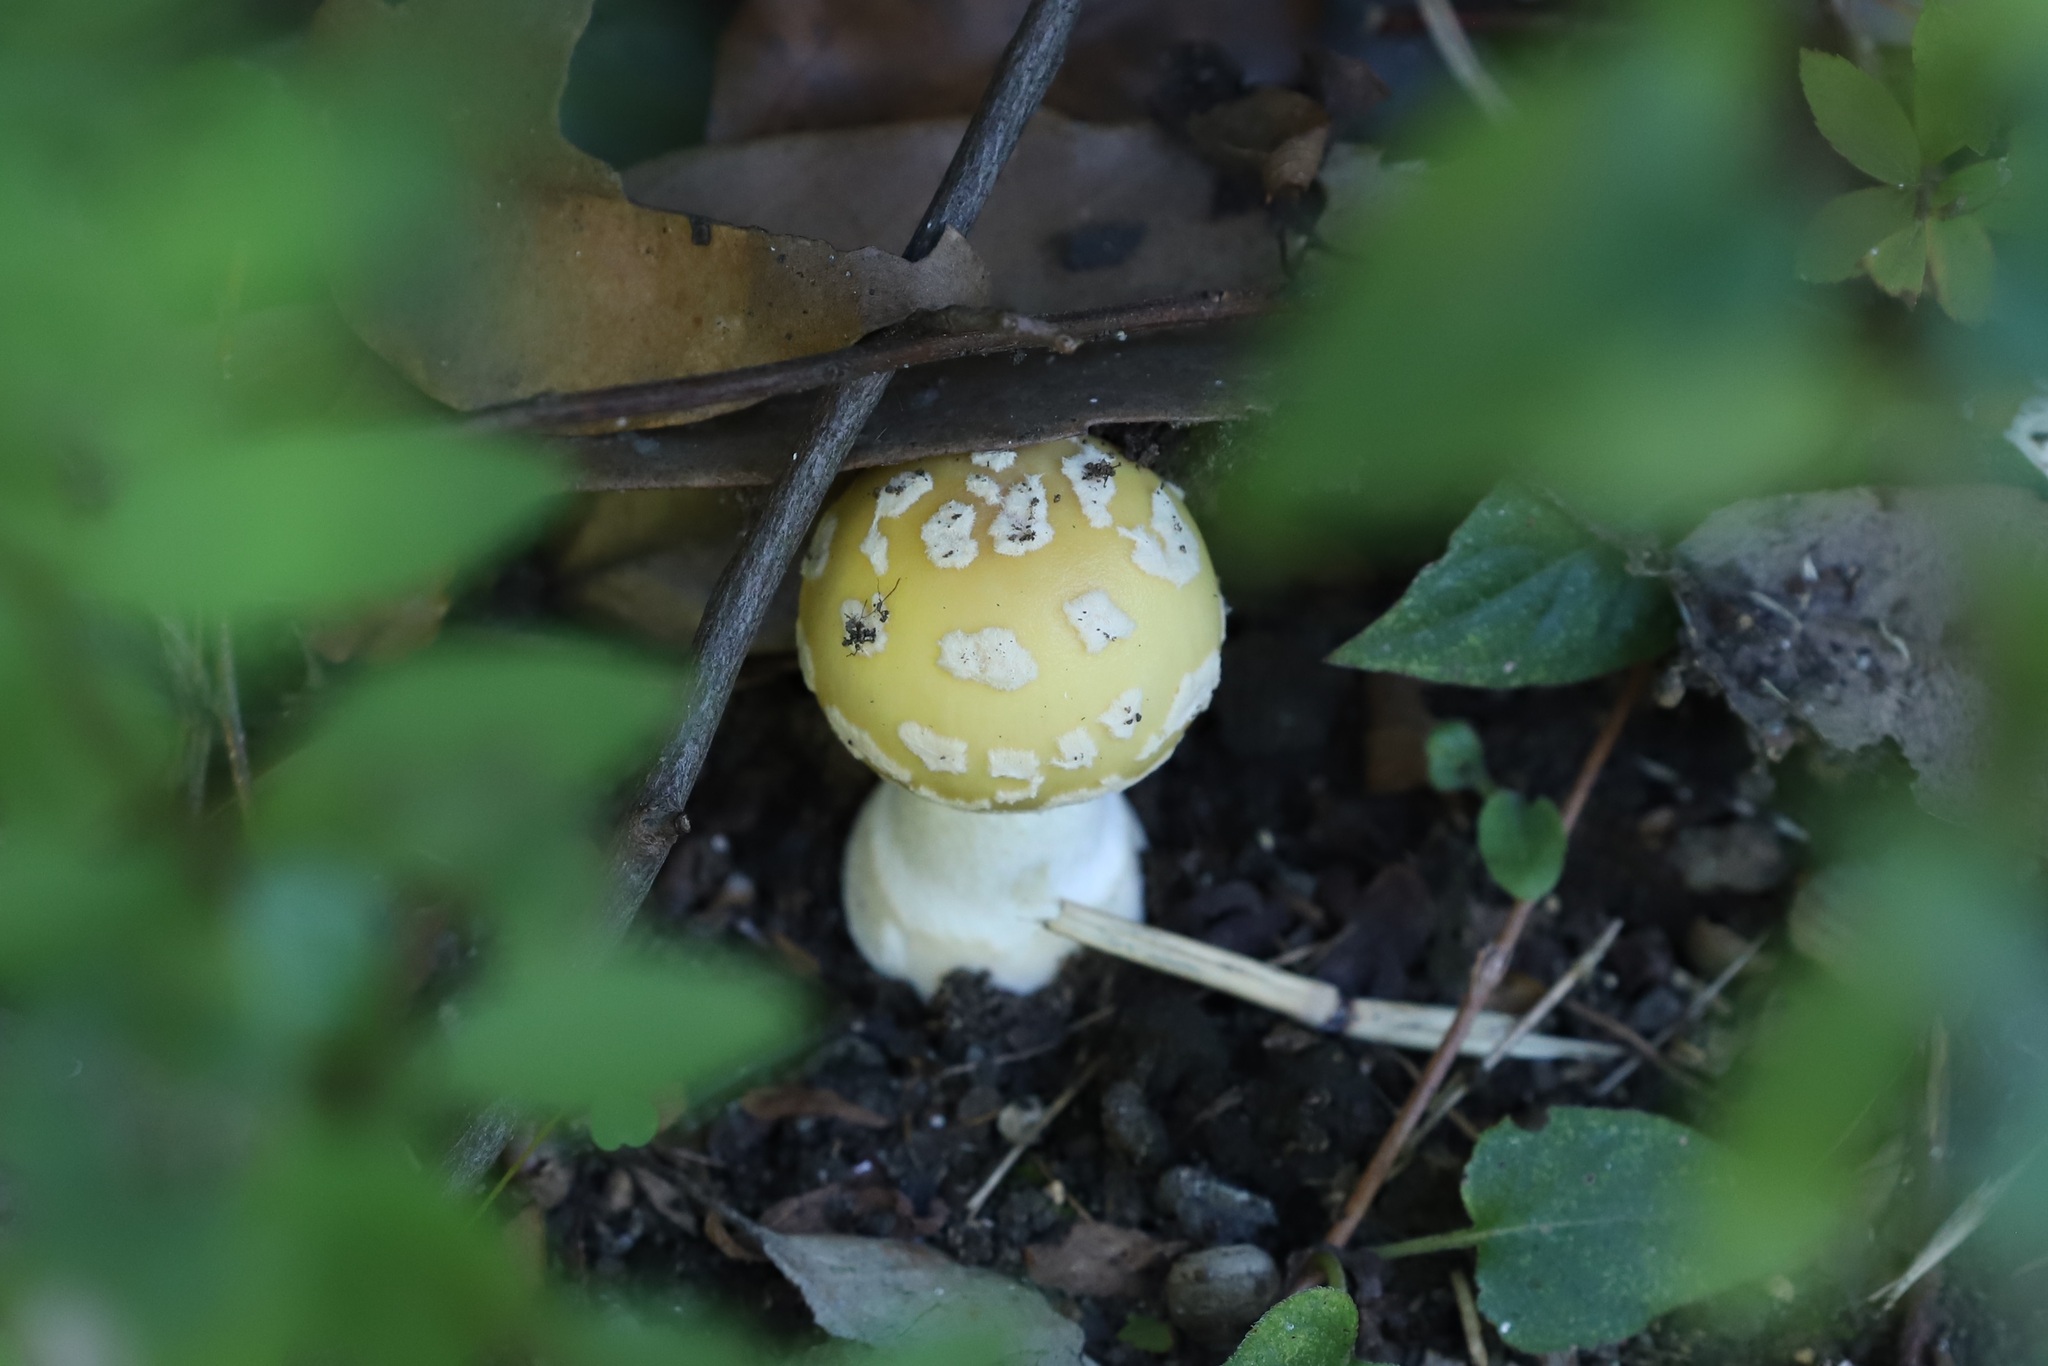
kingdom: Fungi
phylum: Basidiomycota
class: Agaricomycetes
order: Agaricales
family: Amanitaceae
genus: Amanita
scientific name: Amanita orientigemmata
